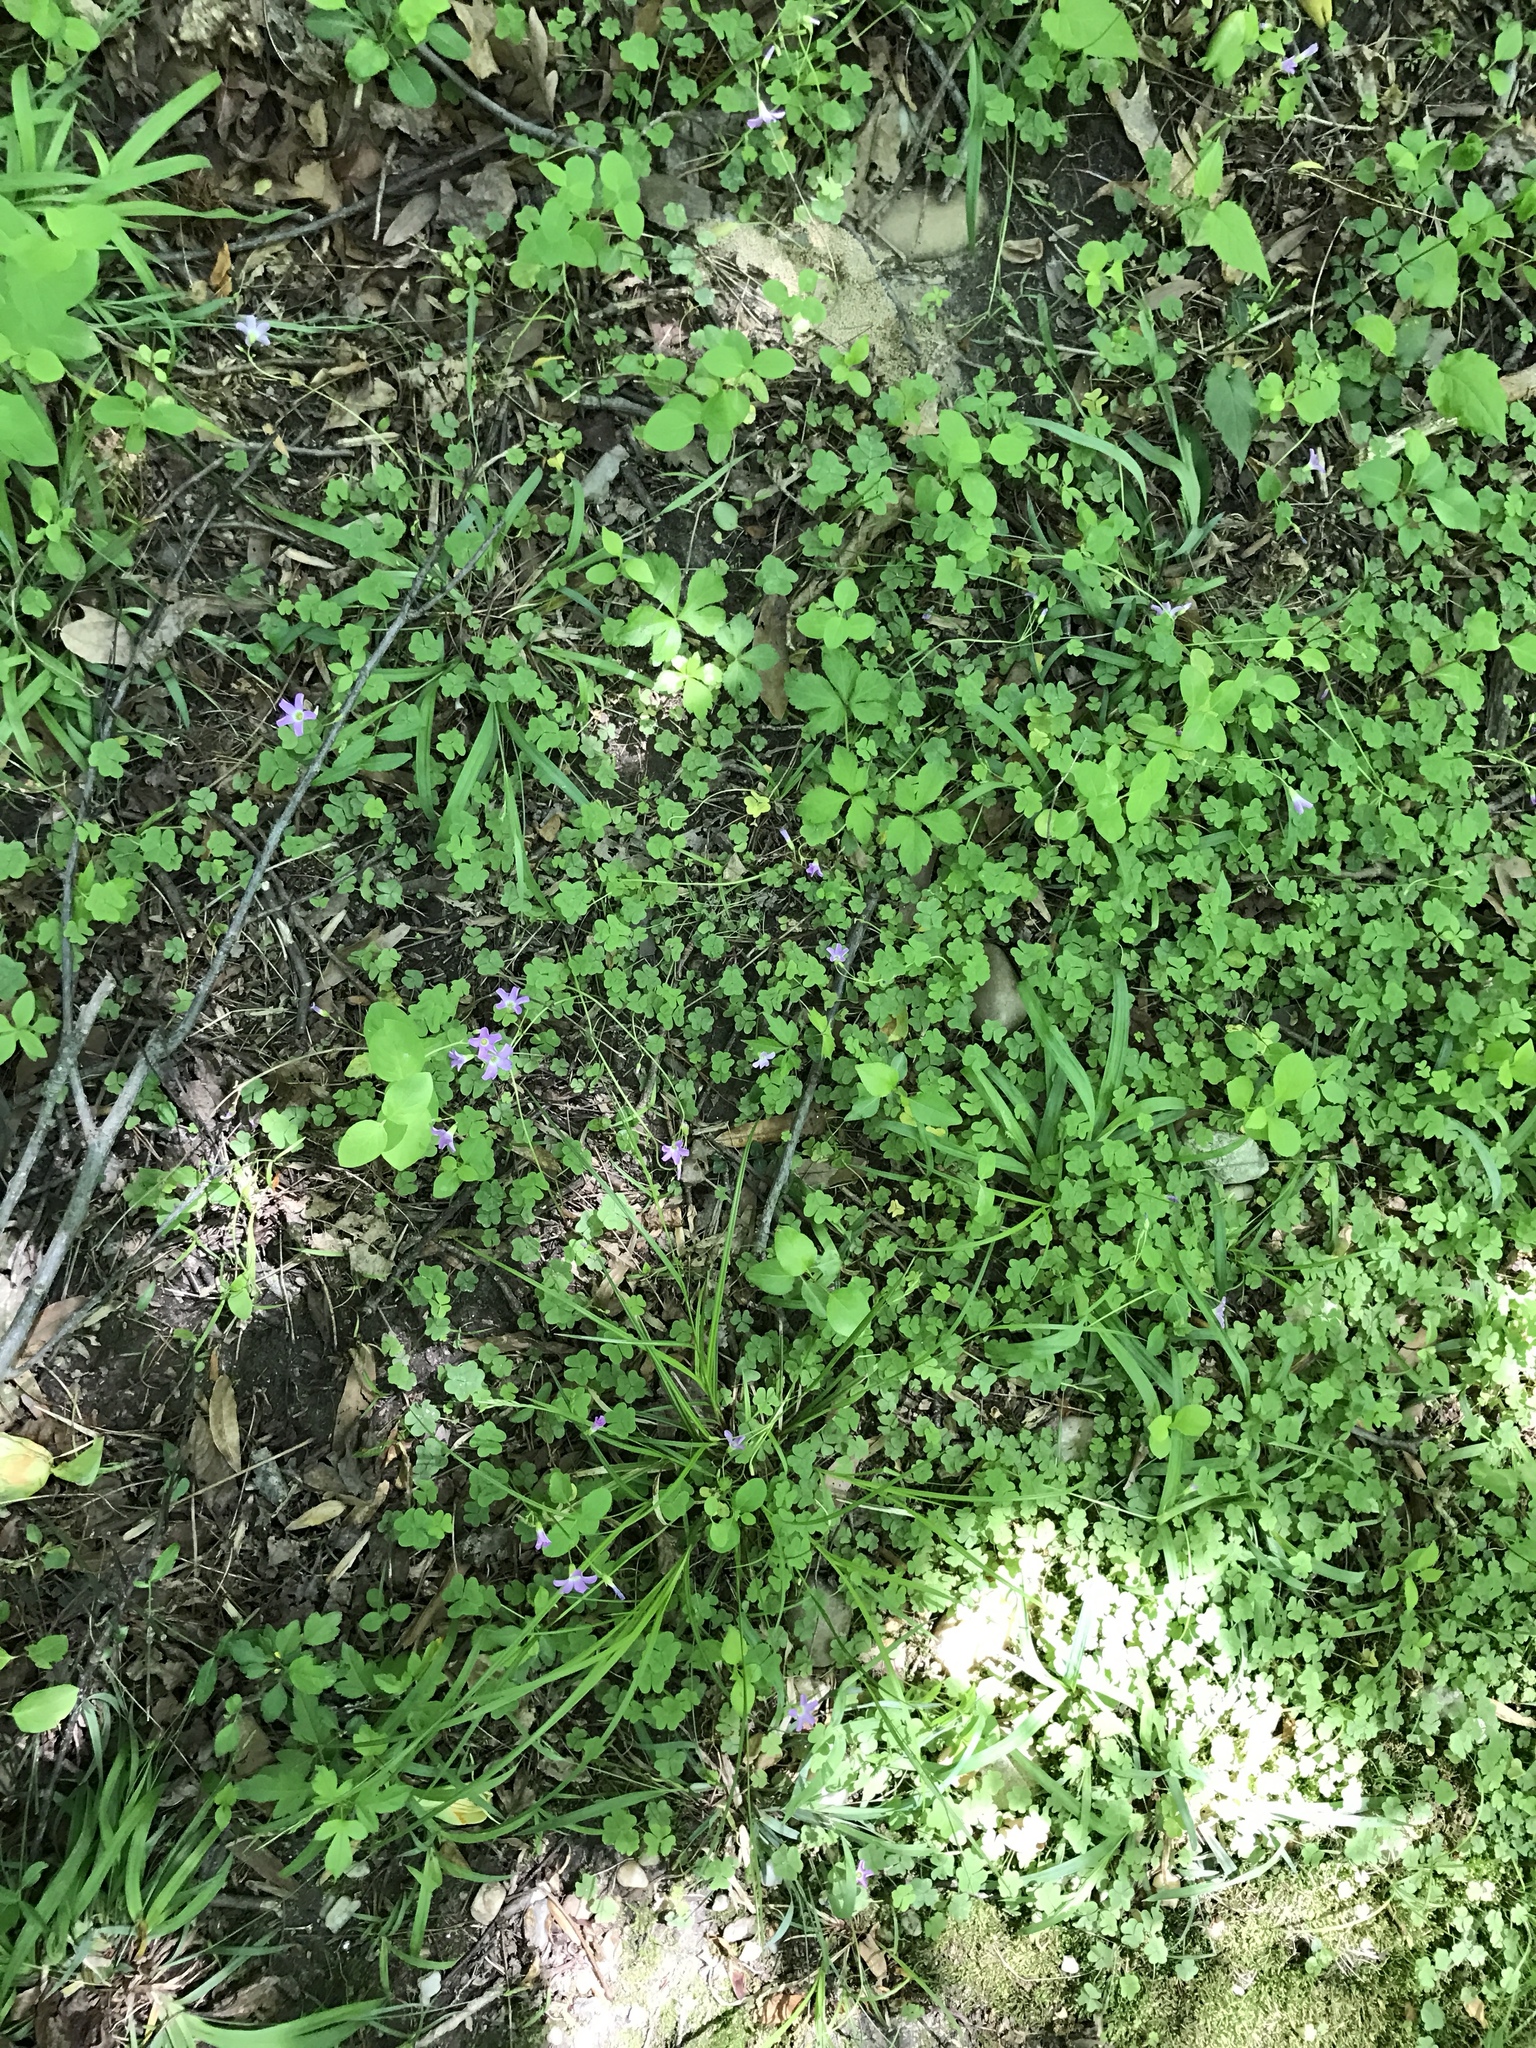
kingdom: Plantae
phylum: Tracheophyta
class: Magnoliopsida
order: Oxalidales
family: Oxalidaceae
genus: Oxalis
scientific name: Oxalis violacea
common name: Violet wood-sorrel
